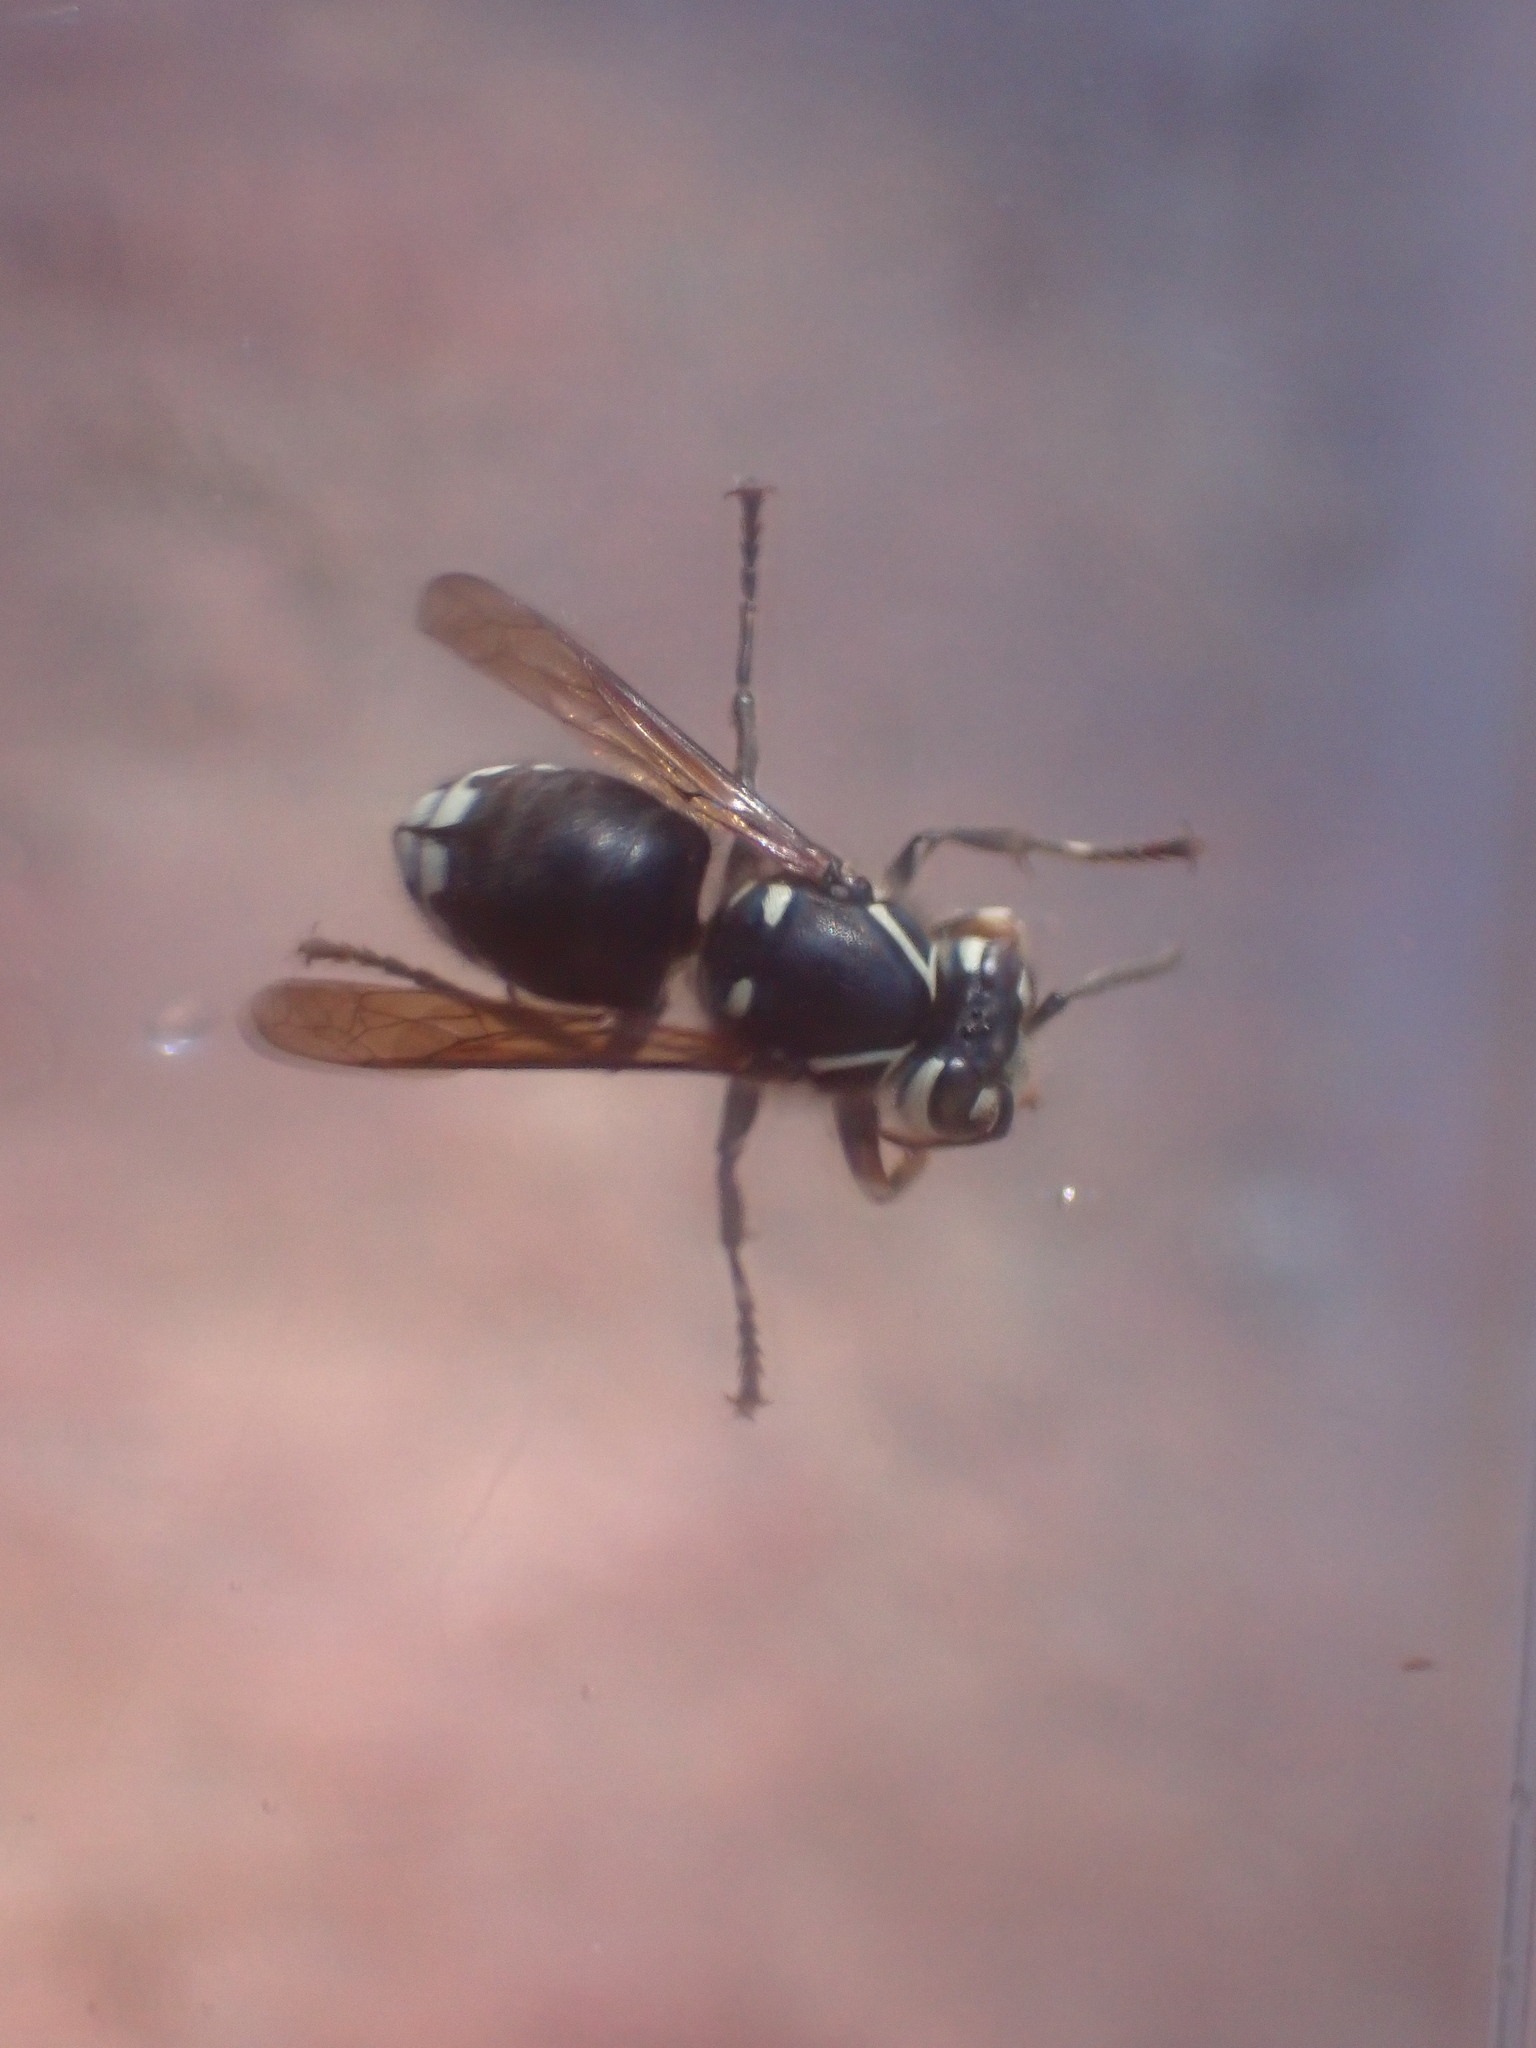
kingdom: Animalia
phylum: Arthropoda
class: Insecta
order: Hymenoptera
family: Vespidae
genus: Dolichovespula
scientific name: Dolichovespula maculata
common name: Bald-faced hornet
